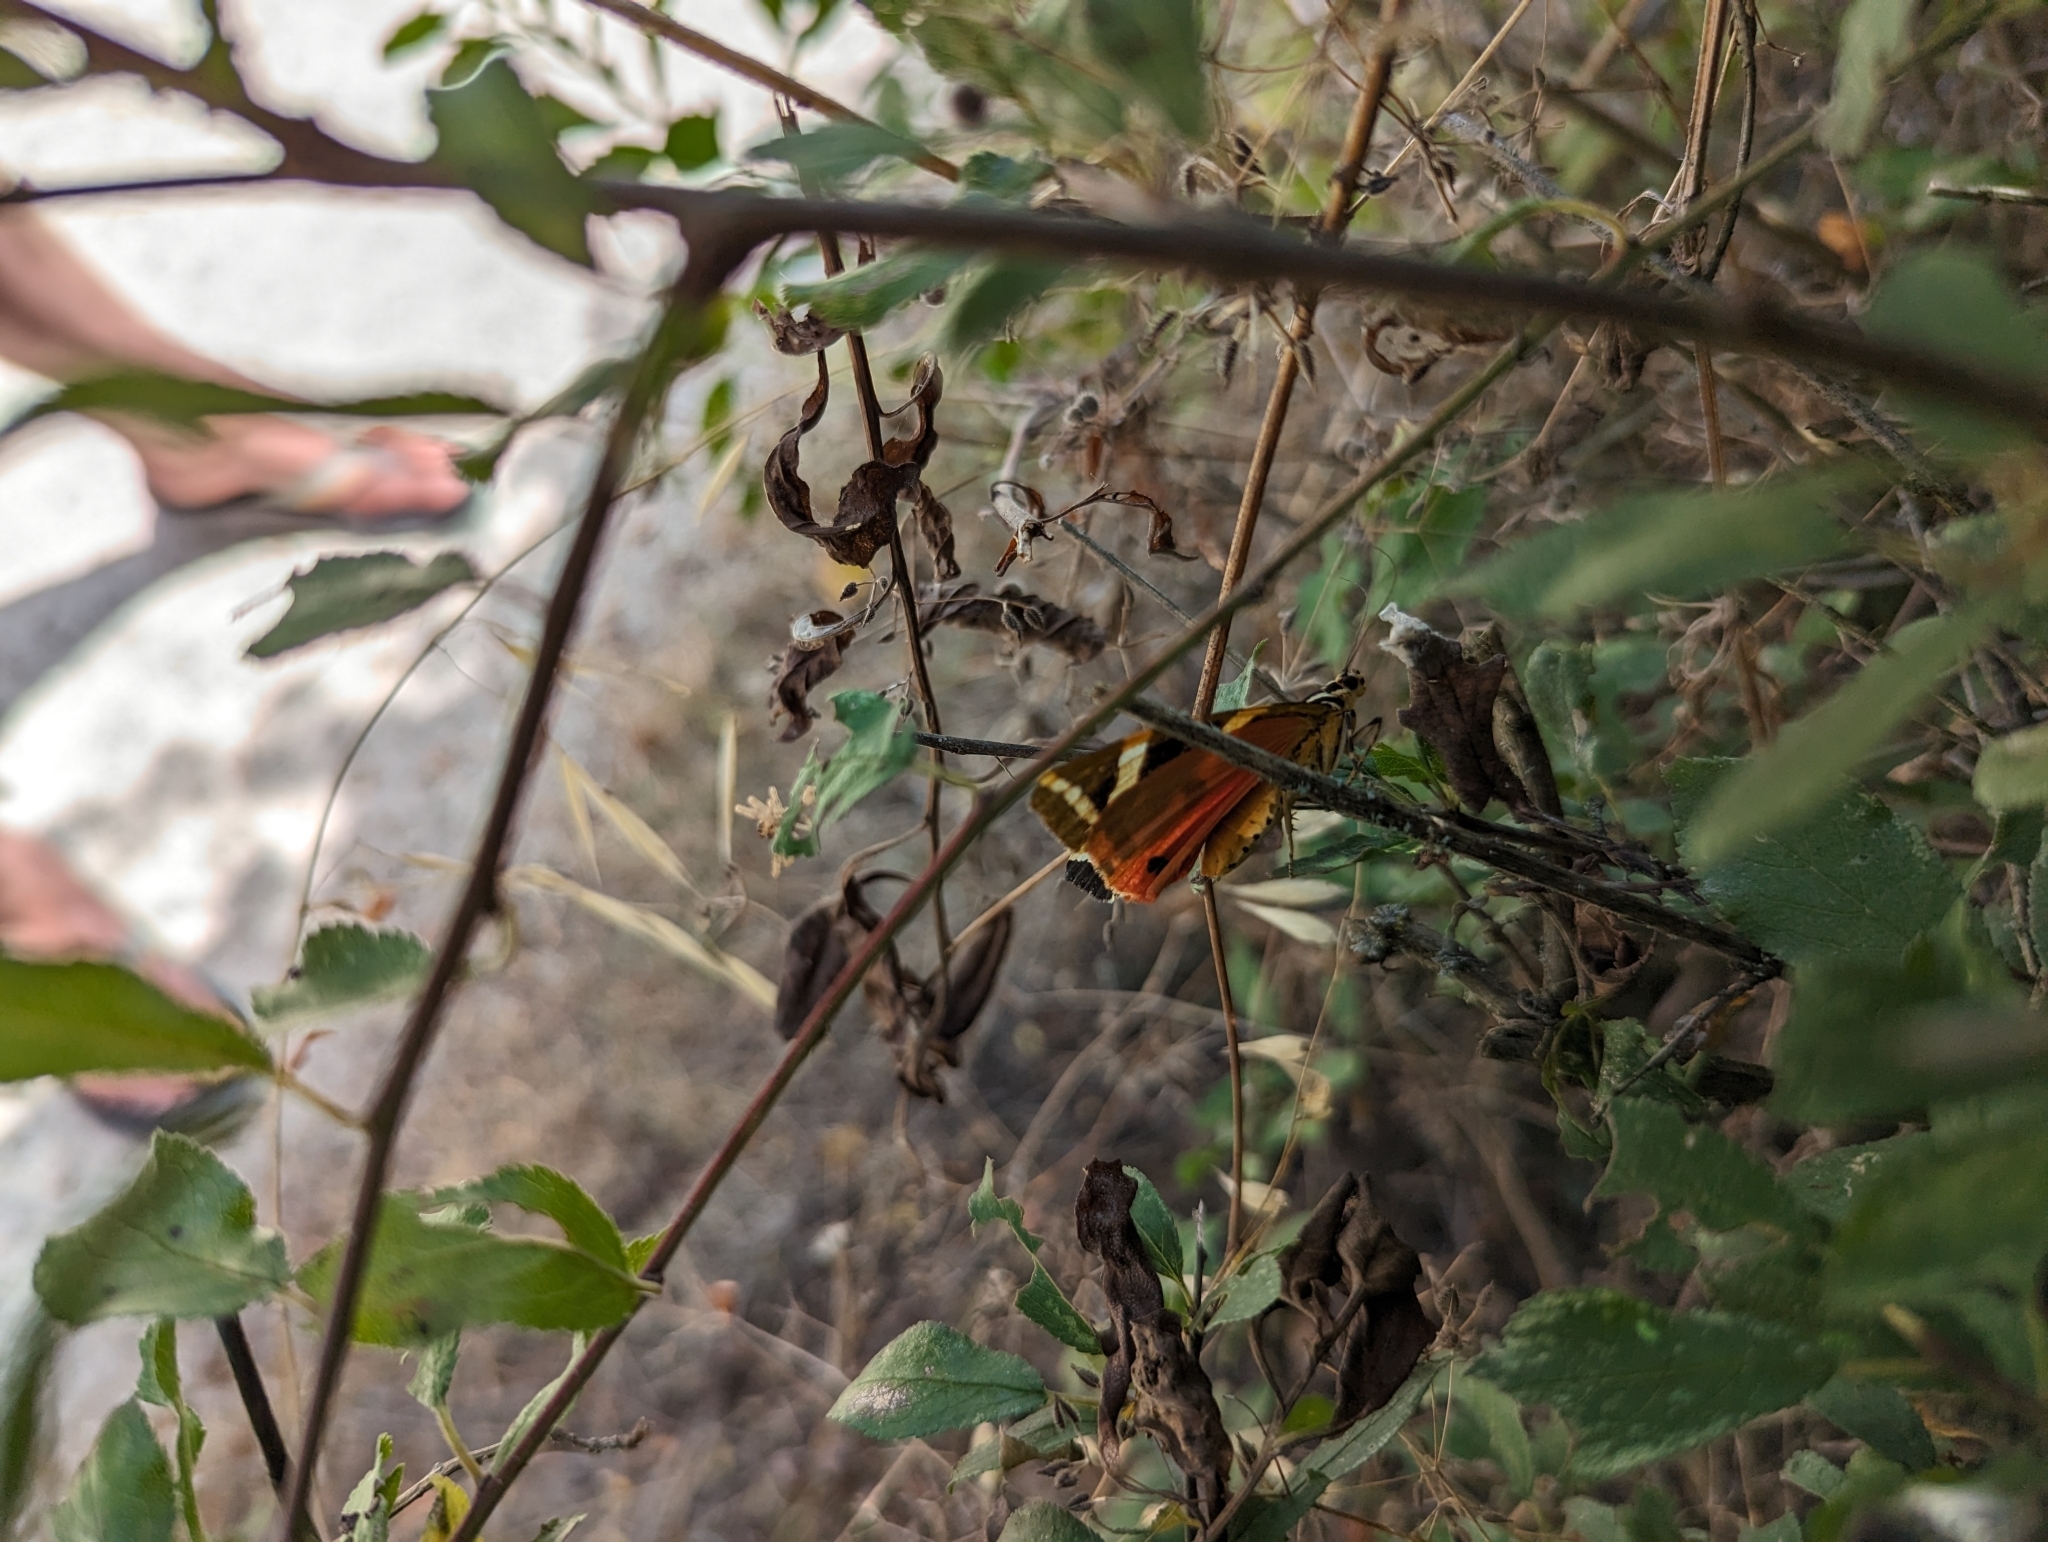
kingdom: Animalia
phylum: Arthropoda
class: Insecta
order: Lepidoptera
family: Erebidae
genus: Euplagia
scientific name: Euplagia quadripunctaria
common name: Jersey tiger
